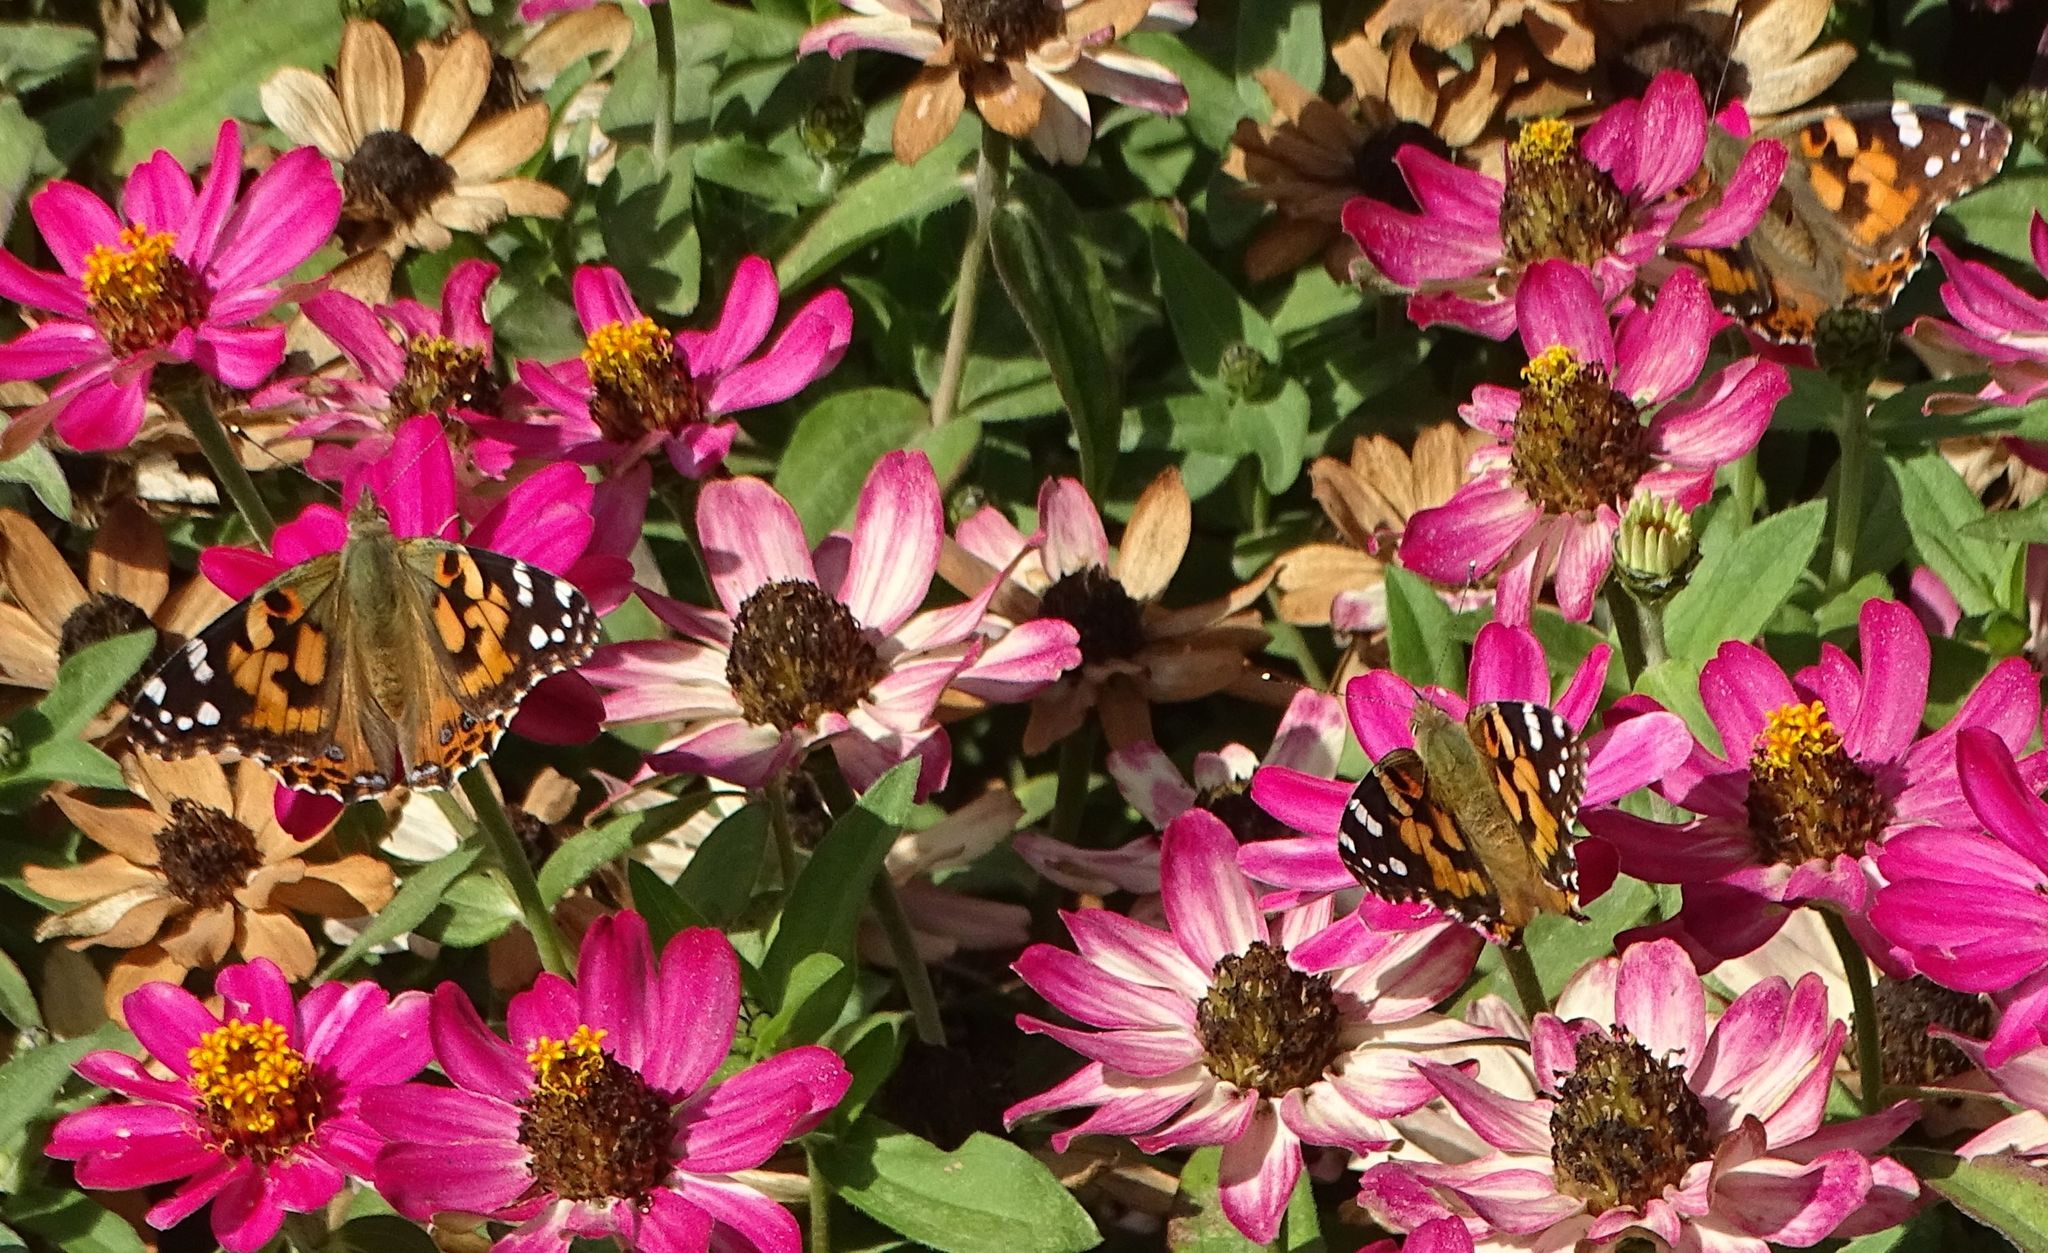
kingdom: Animalia
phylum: Arthropoda
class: Insecta
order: Lepidoptera
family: Nymphalidae
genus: Vanessa
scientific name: Vanessa cardui
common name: Painted lady
